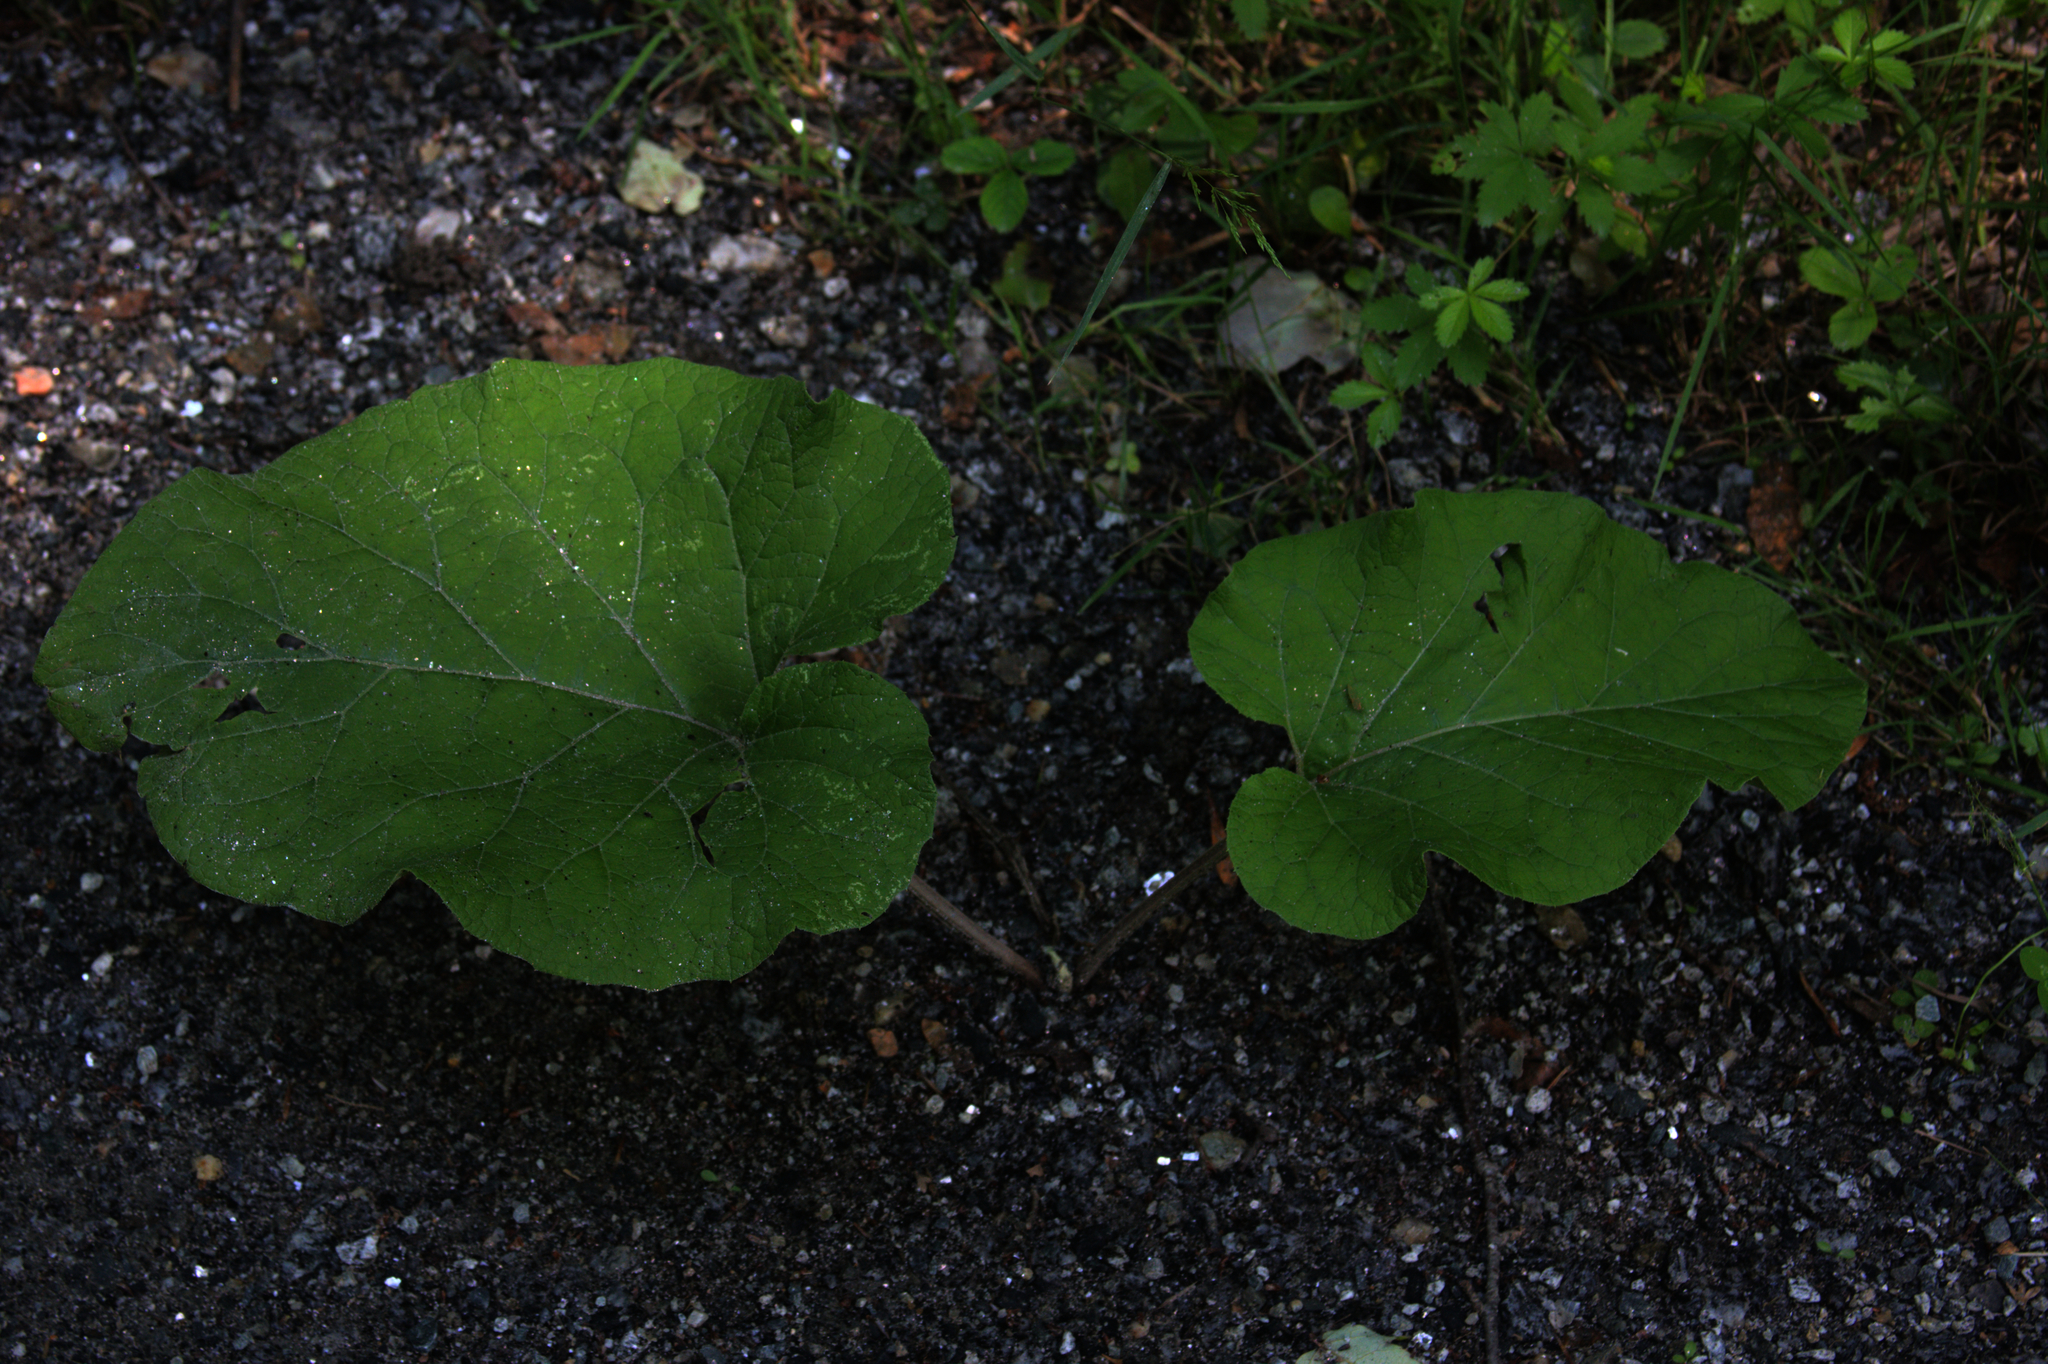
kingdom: Plantae
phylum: Tracheophyta
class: Magnoliopsida
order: Asterales
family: Asteraceae
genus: Arctium
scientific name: Arctium
